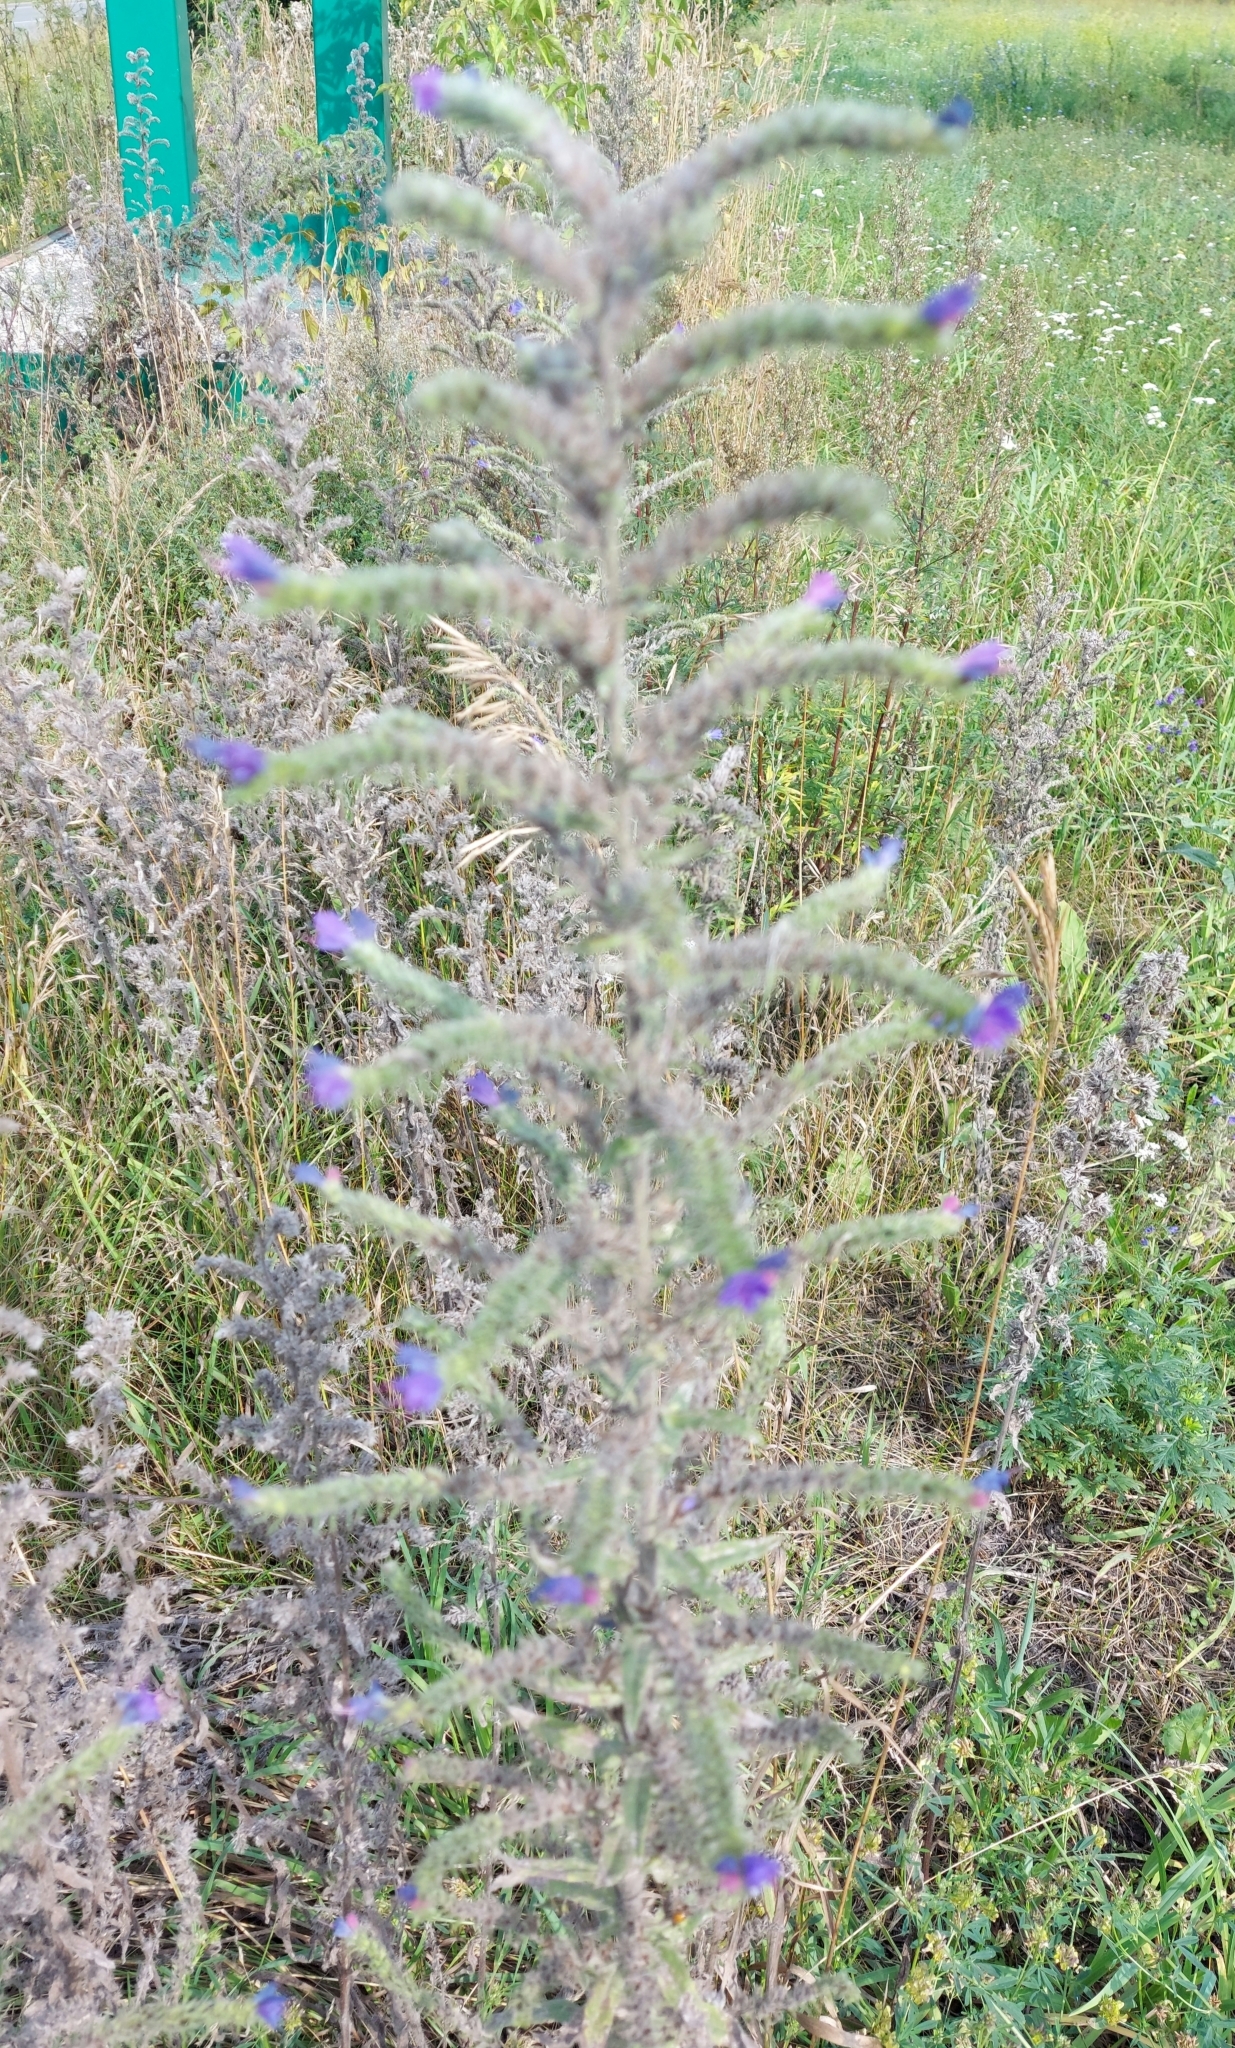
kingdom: Plantae
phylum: Tracheophyta
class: Magnoliopsida
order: Boraginales
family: Boraginaceae
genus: Echium
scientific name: Echium vulgare
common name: Common viper's bugloss
